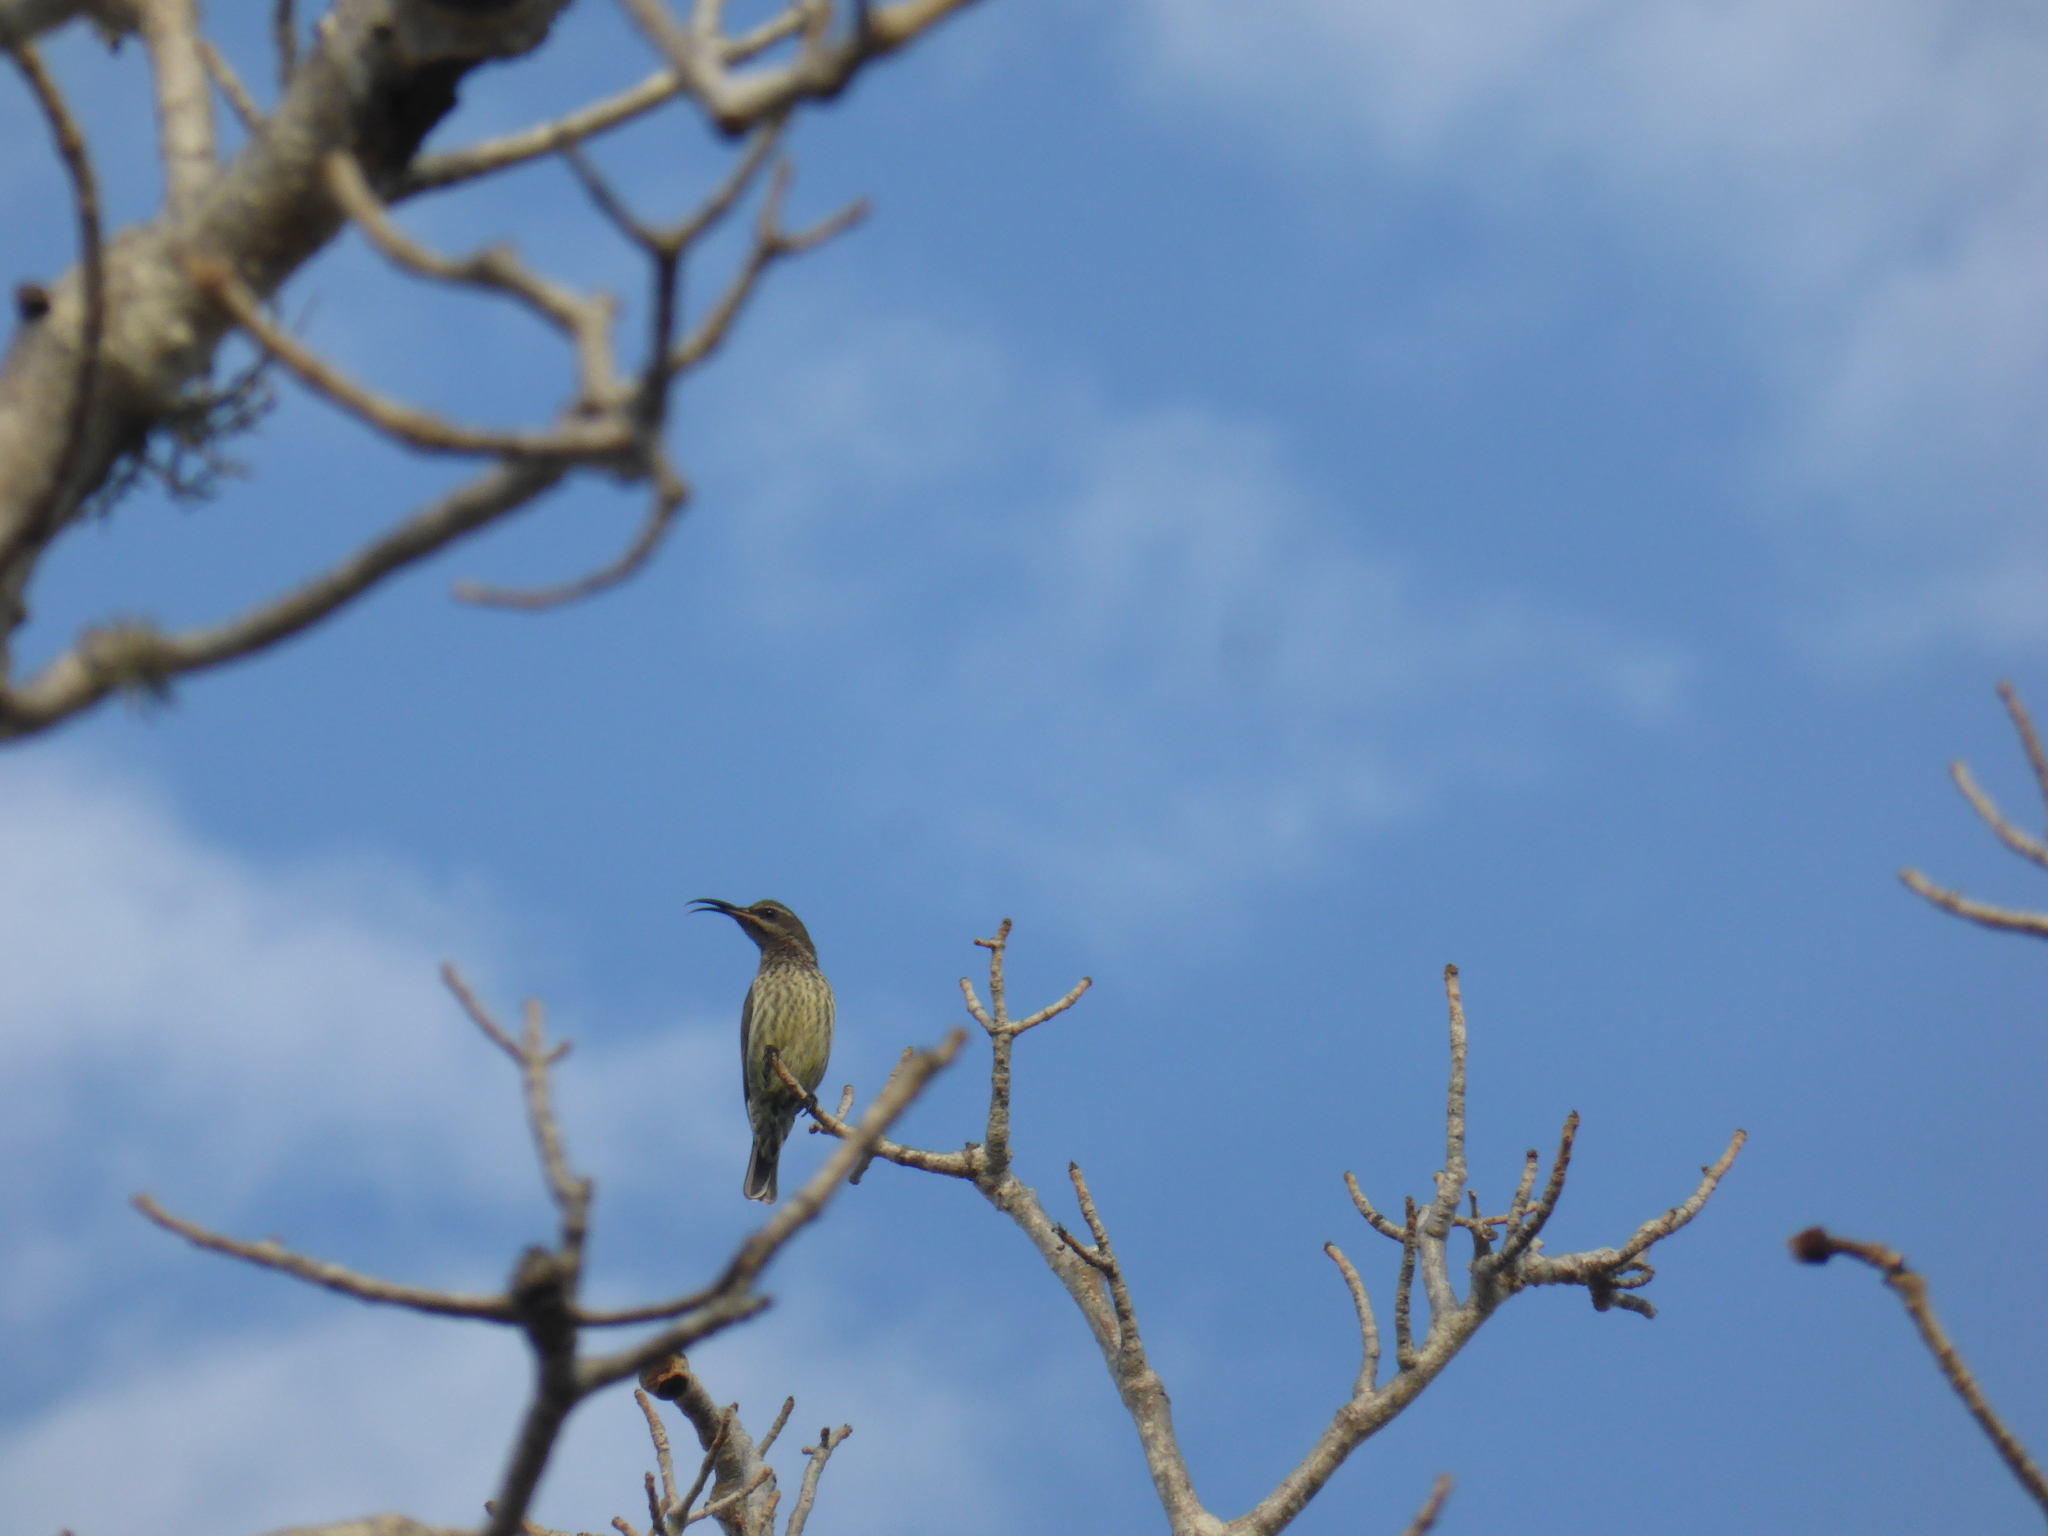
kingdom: Animalia
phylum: Chordata
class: Aves
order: Passeriformes
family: Nectariniidae
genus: Cinnyris
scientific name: Cinnyris notatus
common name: Malagasy green sunbird
